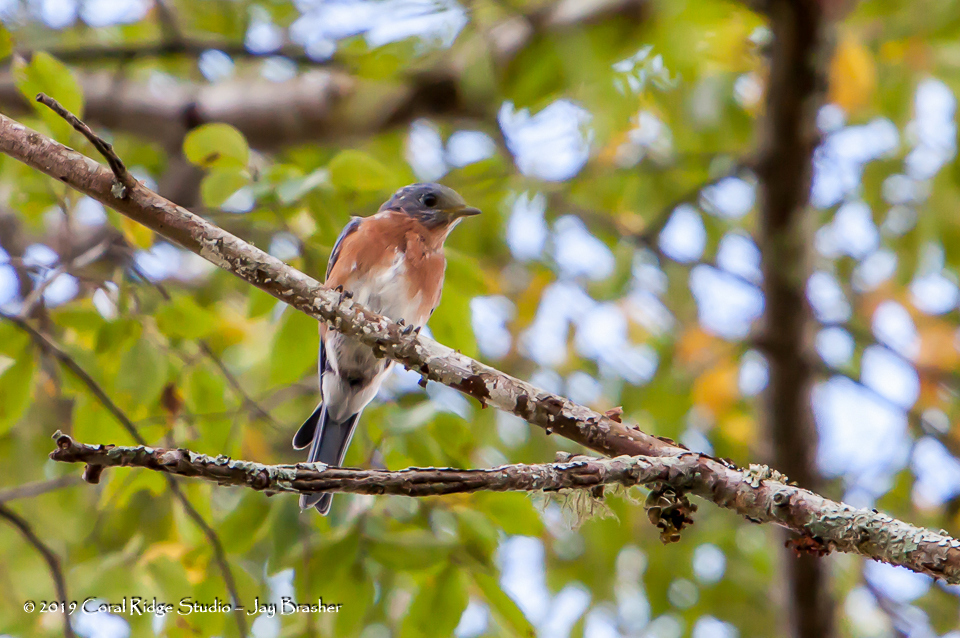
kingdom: Animalia
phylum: Chordata
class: Aves
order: Passeriformes
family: Turdidae
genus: Sialia
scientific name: Sialia sialis
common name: Eastern bluebird
